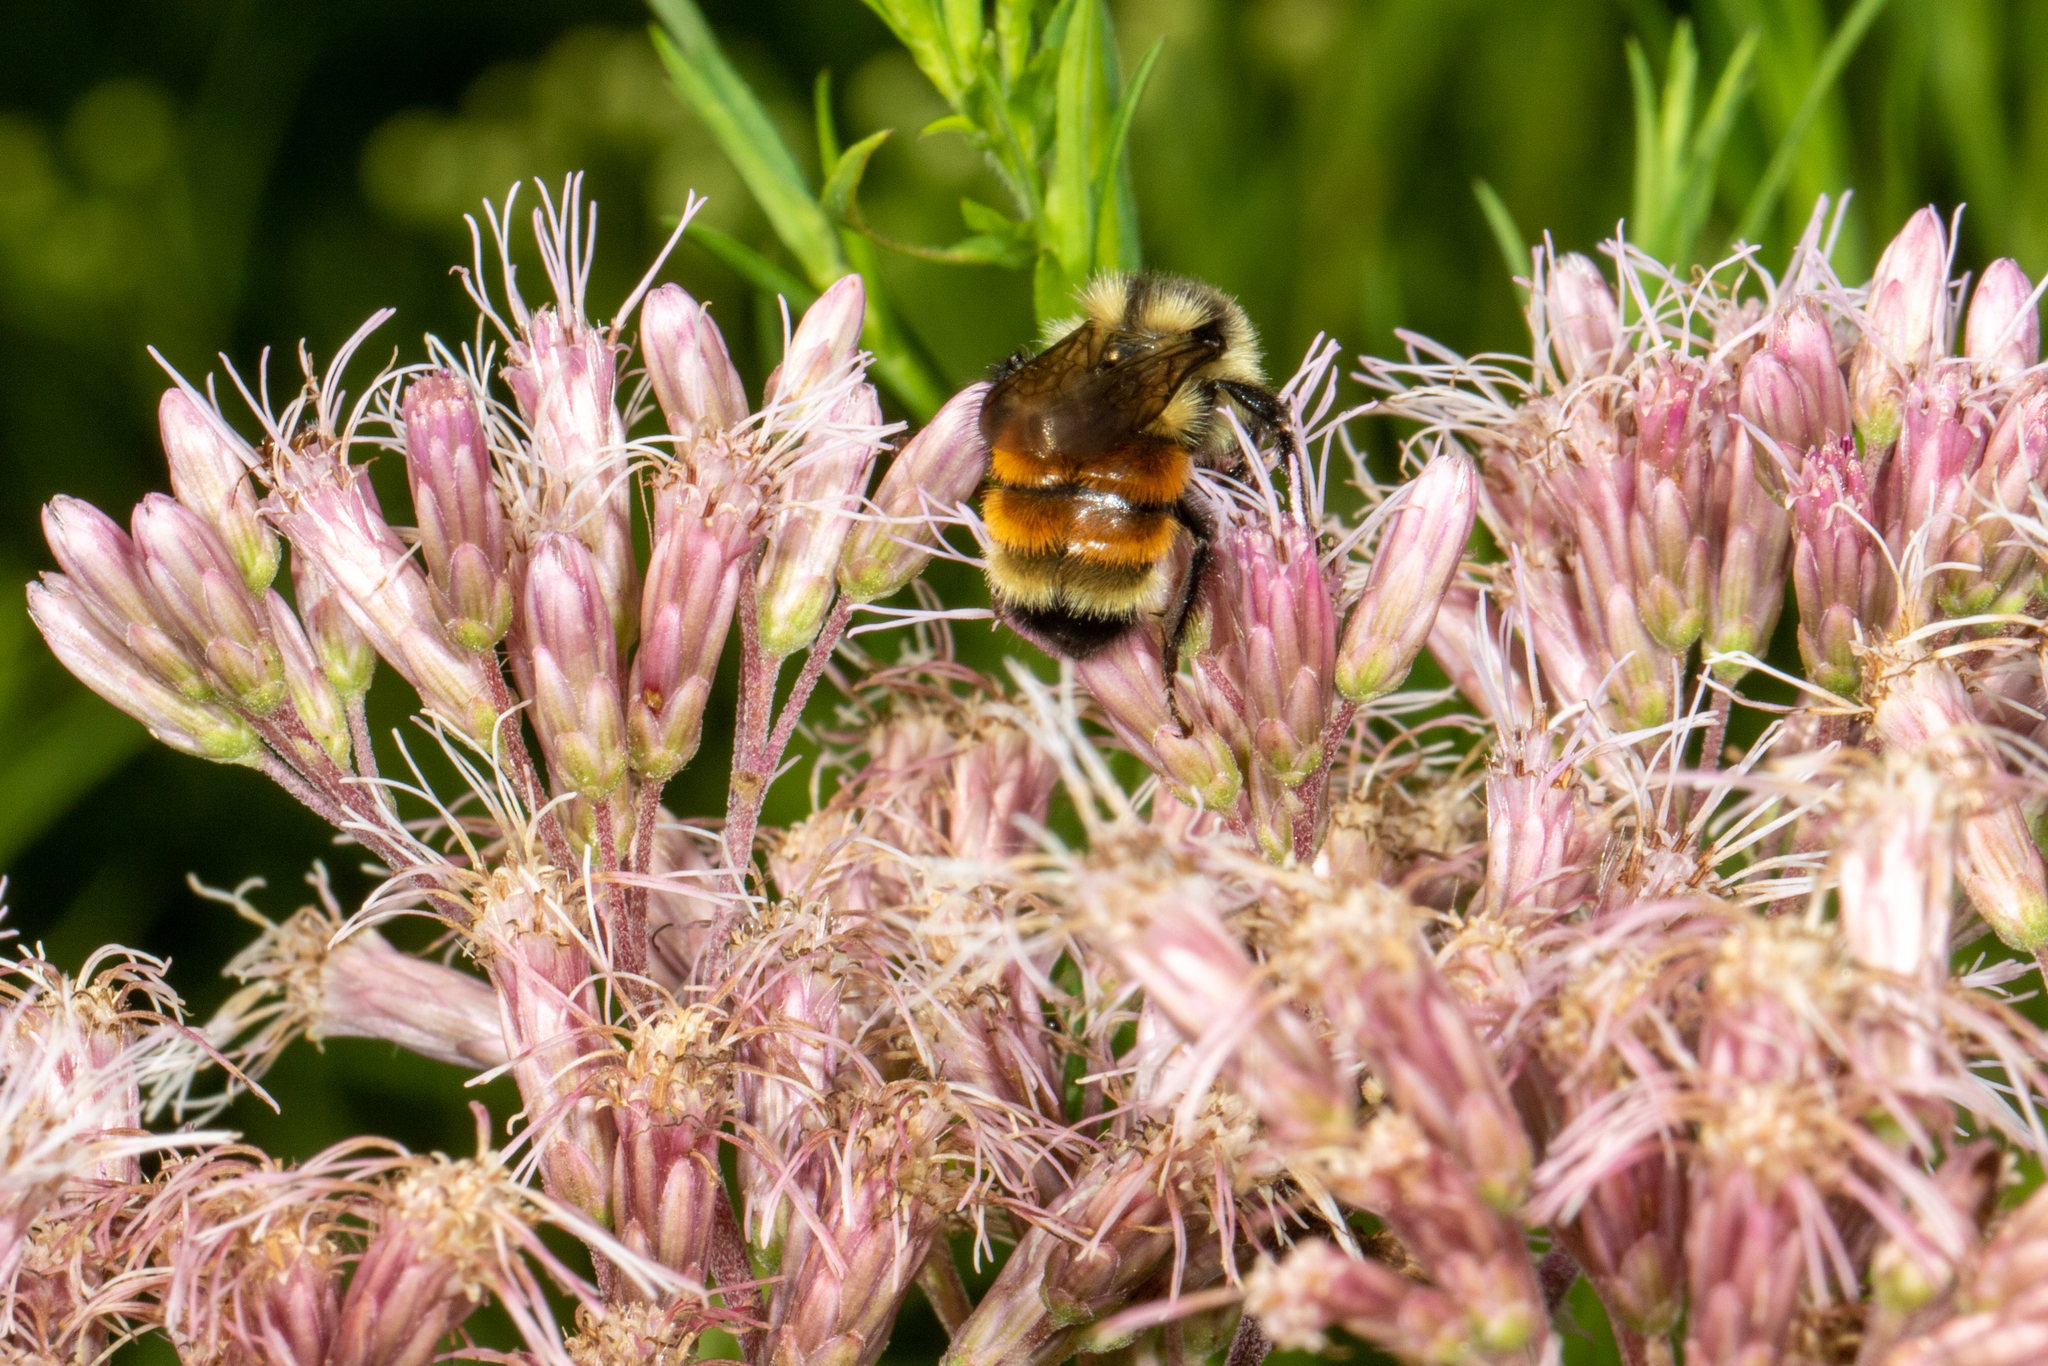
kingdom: Animalia
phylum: Arthropoda
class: Insecta
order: Hymenoptera
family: Apidae
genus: Bombus
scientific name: Bombus ternarius
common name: Tri-colored bumble bee
